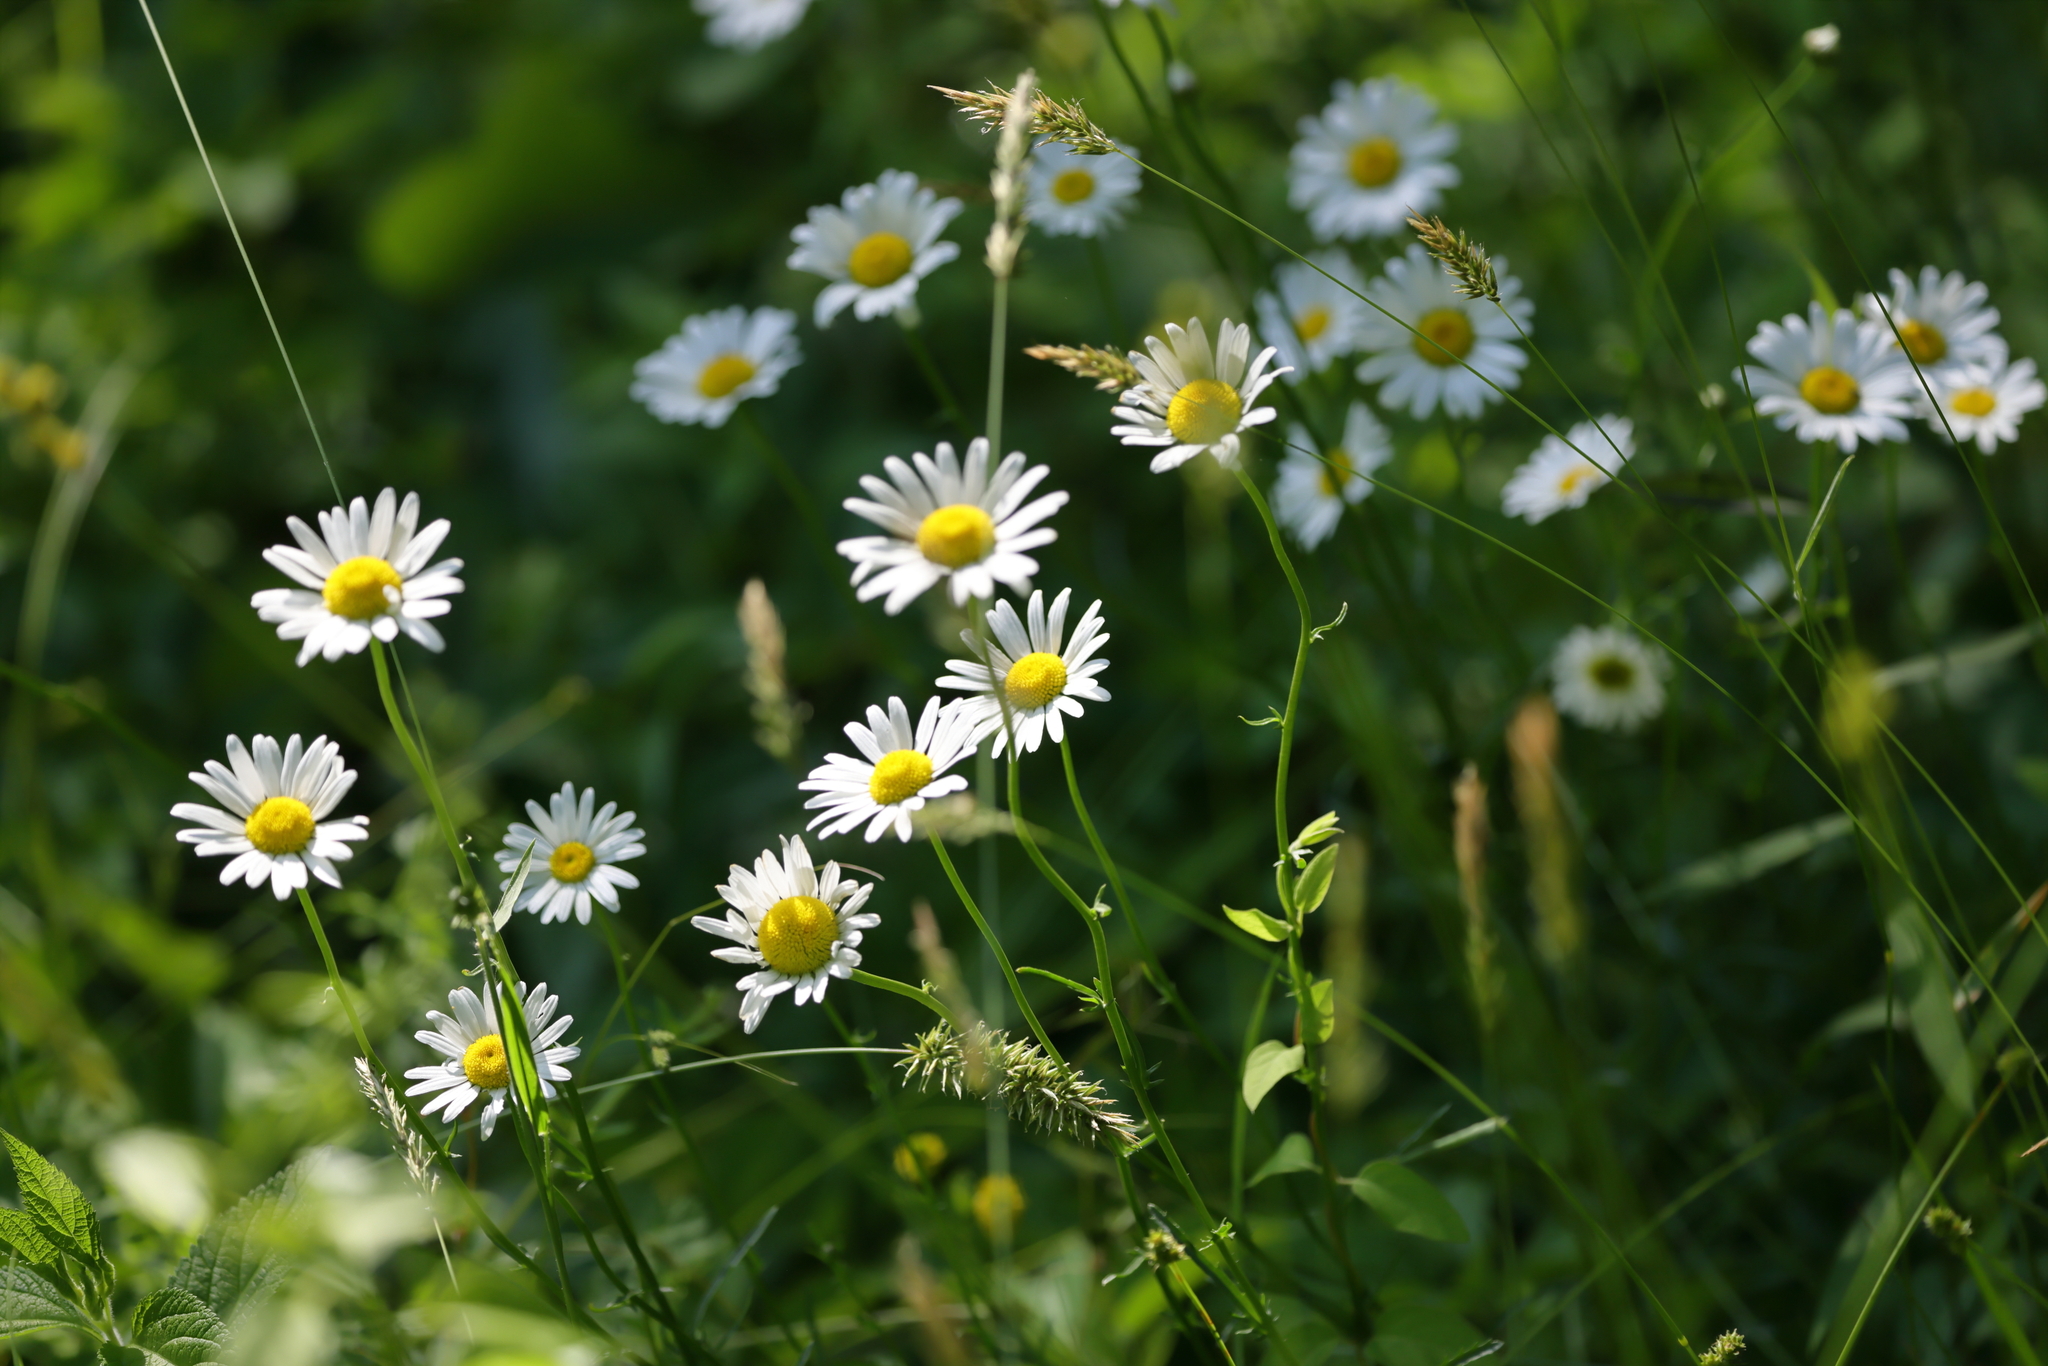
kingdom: Plantae
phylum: Tracheophyta
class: Magnoliopsida
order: Asterales
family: Asteraceae
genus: Leucanthemum
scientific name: Leucanthemum vulgare
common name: Oxeye daisy
